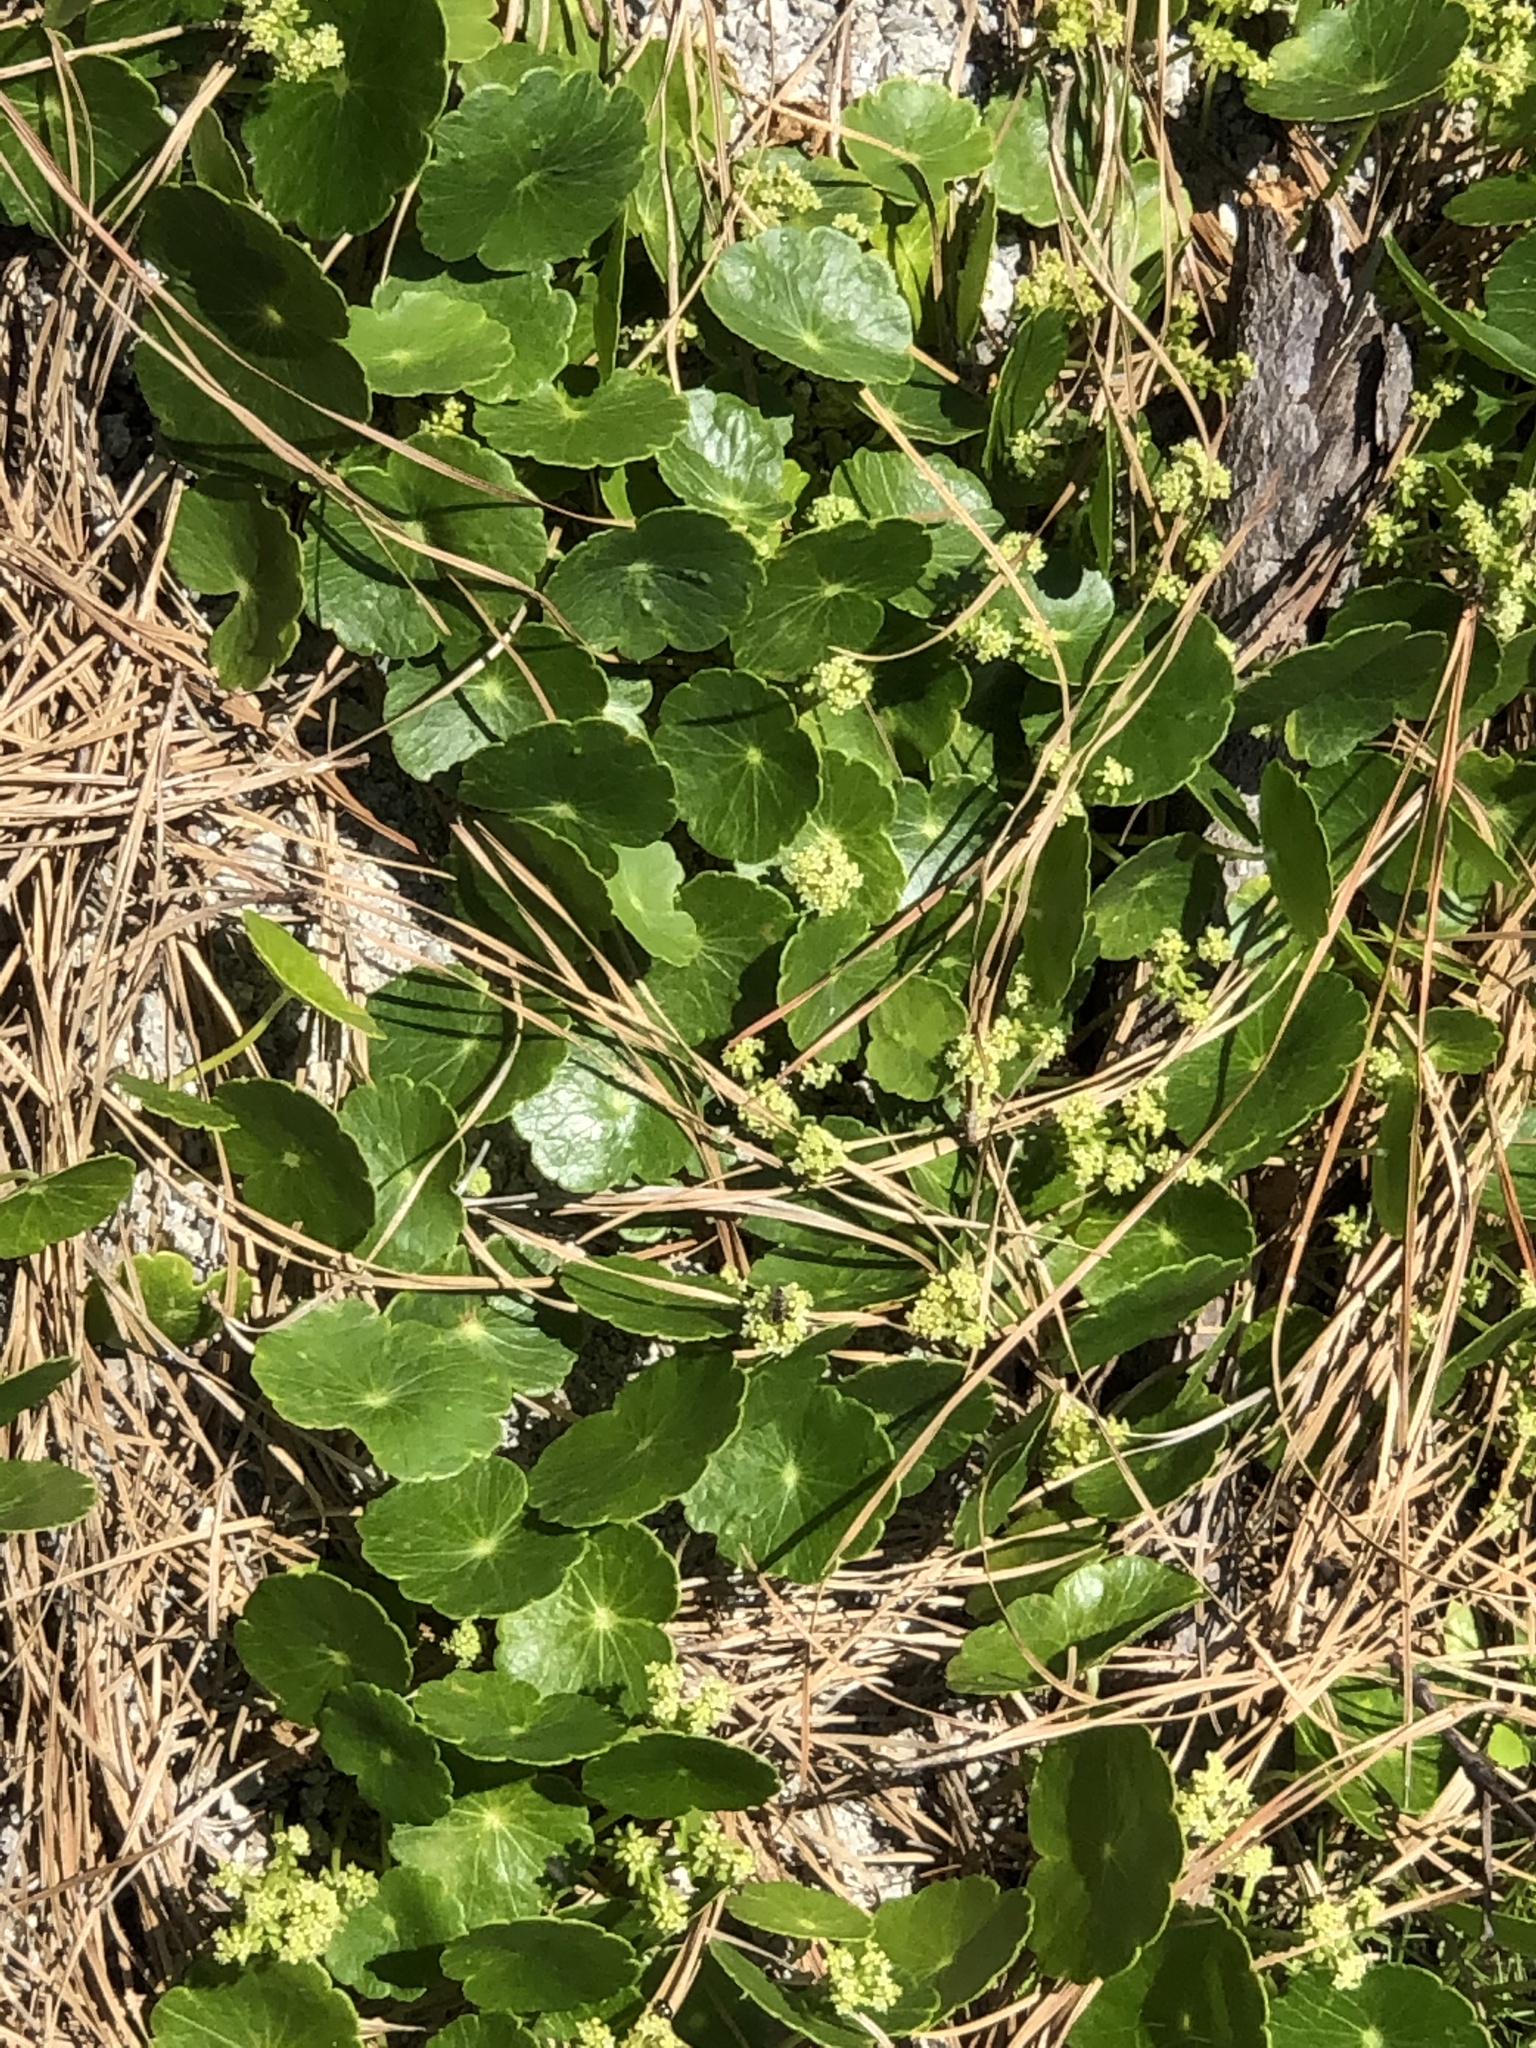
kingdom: Plantae
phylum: Tracheophyta
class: Magnoliopsida
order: Apiales
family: Araliaceae
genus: Hydrocotyle
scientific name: Hydrocotyle bonariensis
